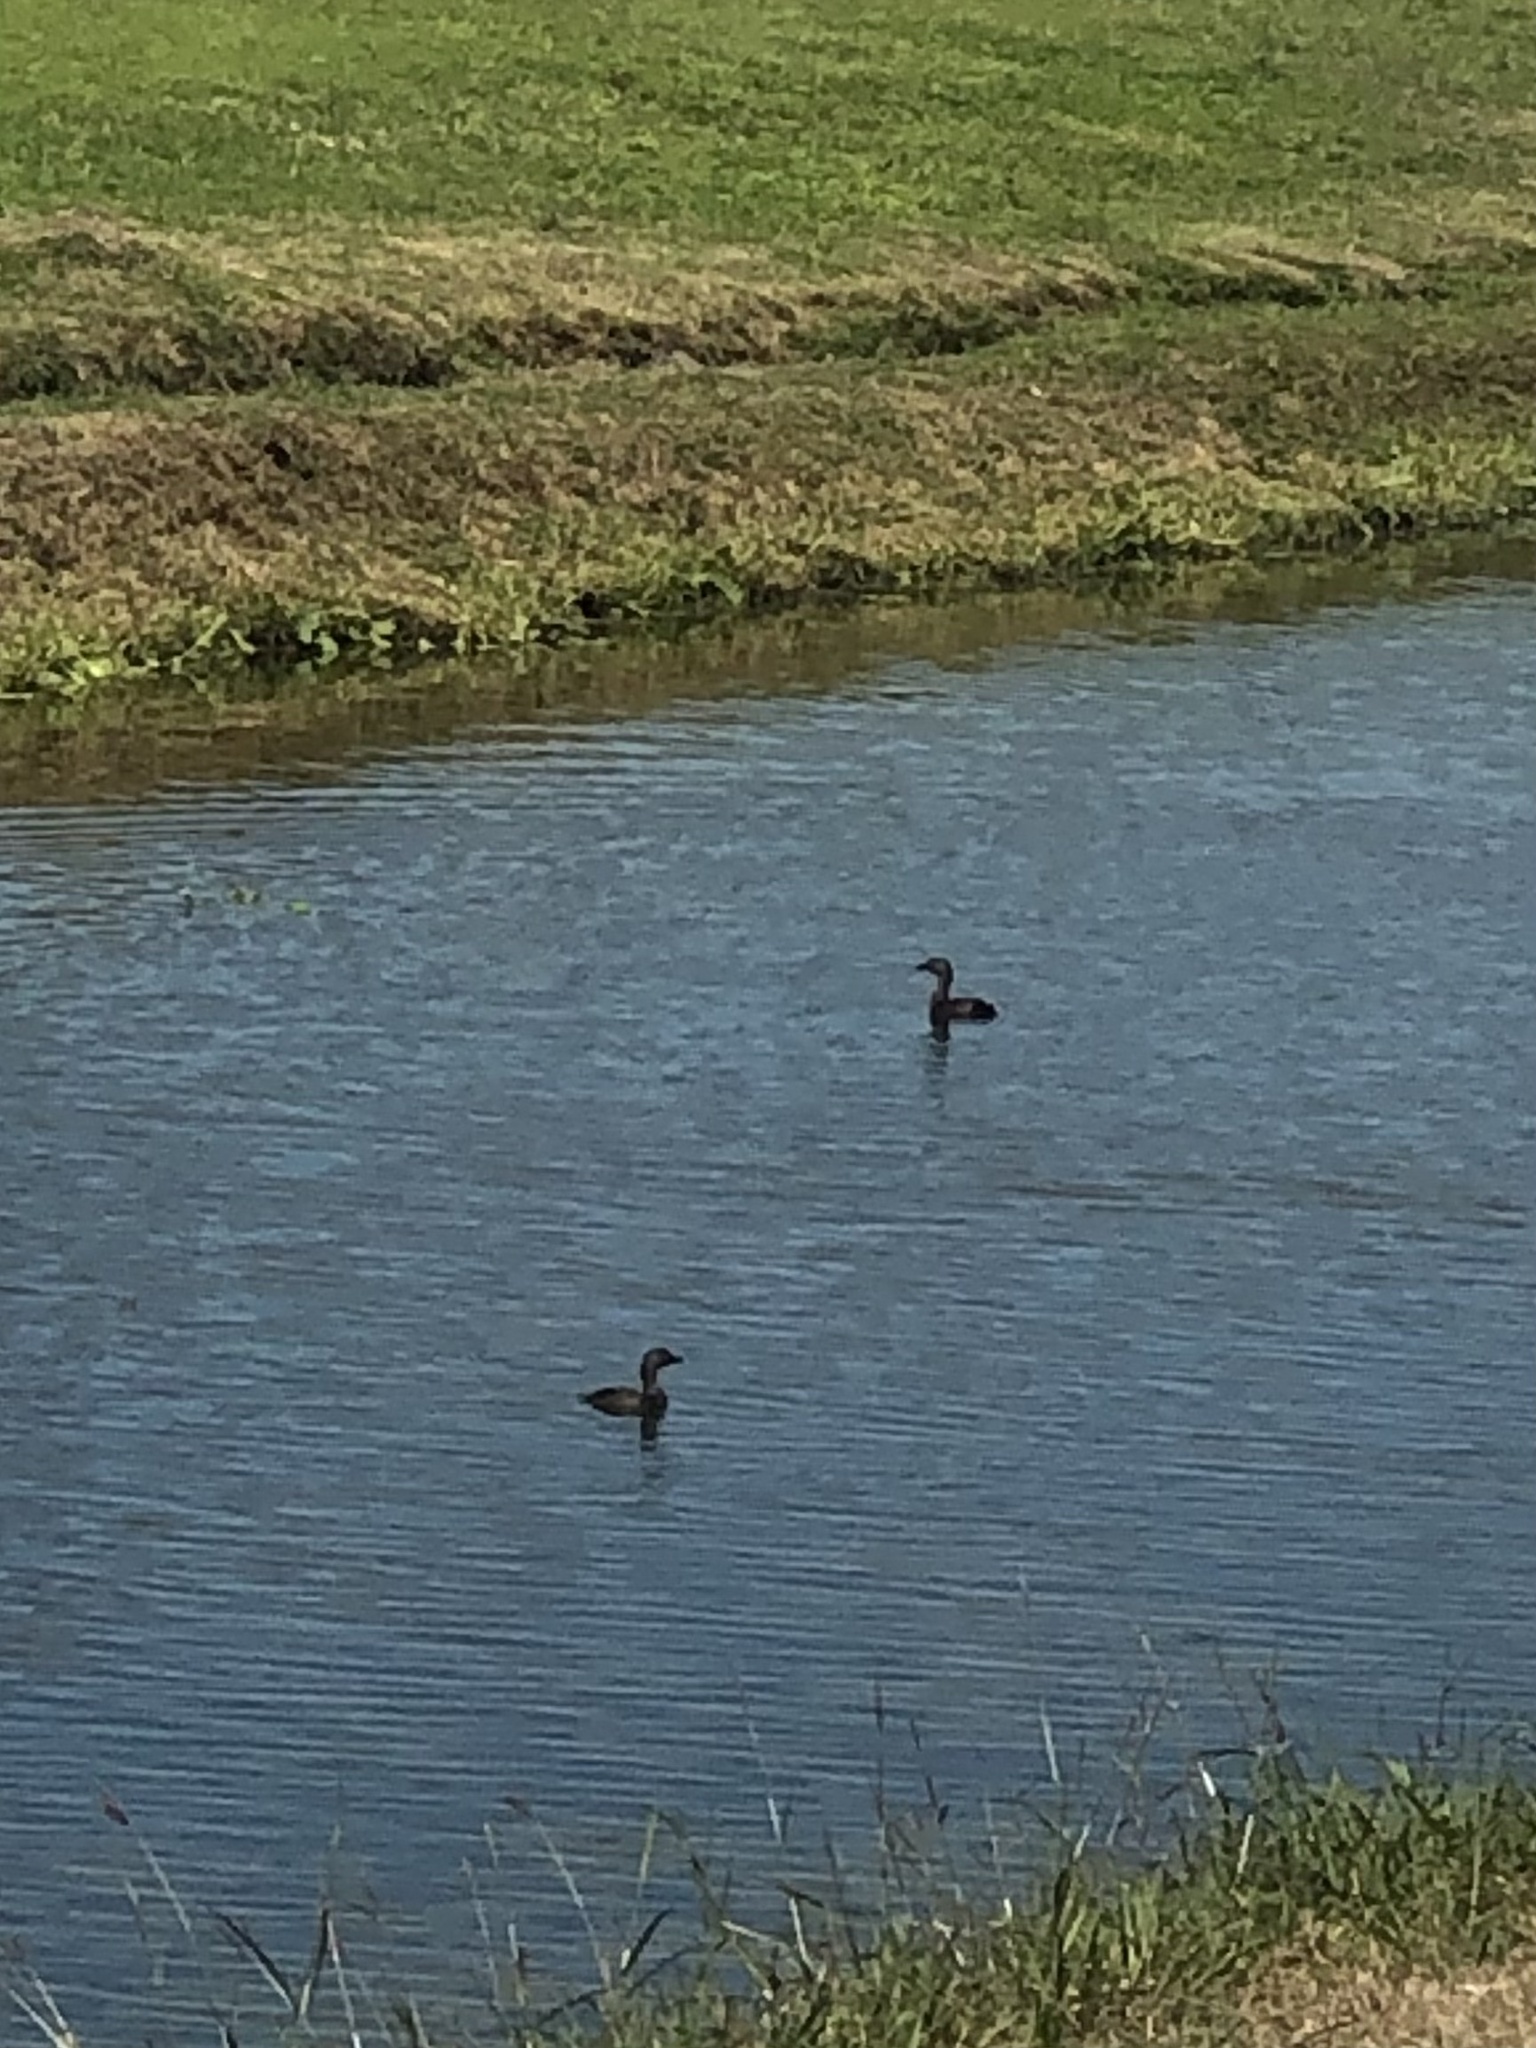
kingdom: Animalia
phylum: Chordata
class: Aves
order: Podicipediformes
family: Podicipedidae
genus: Tachybaptus
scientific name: Tachybaptus dominicus
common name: Least grebe
